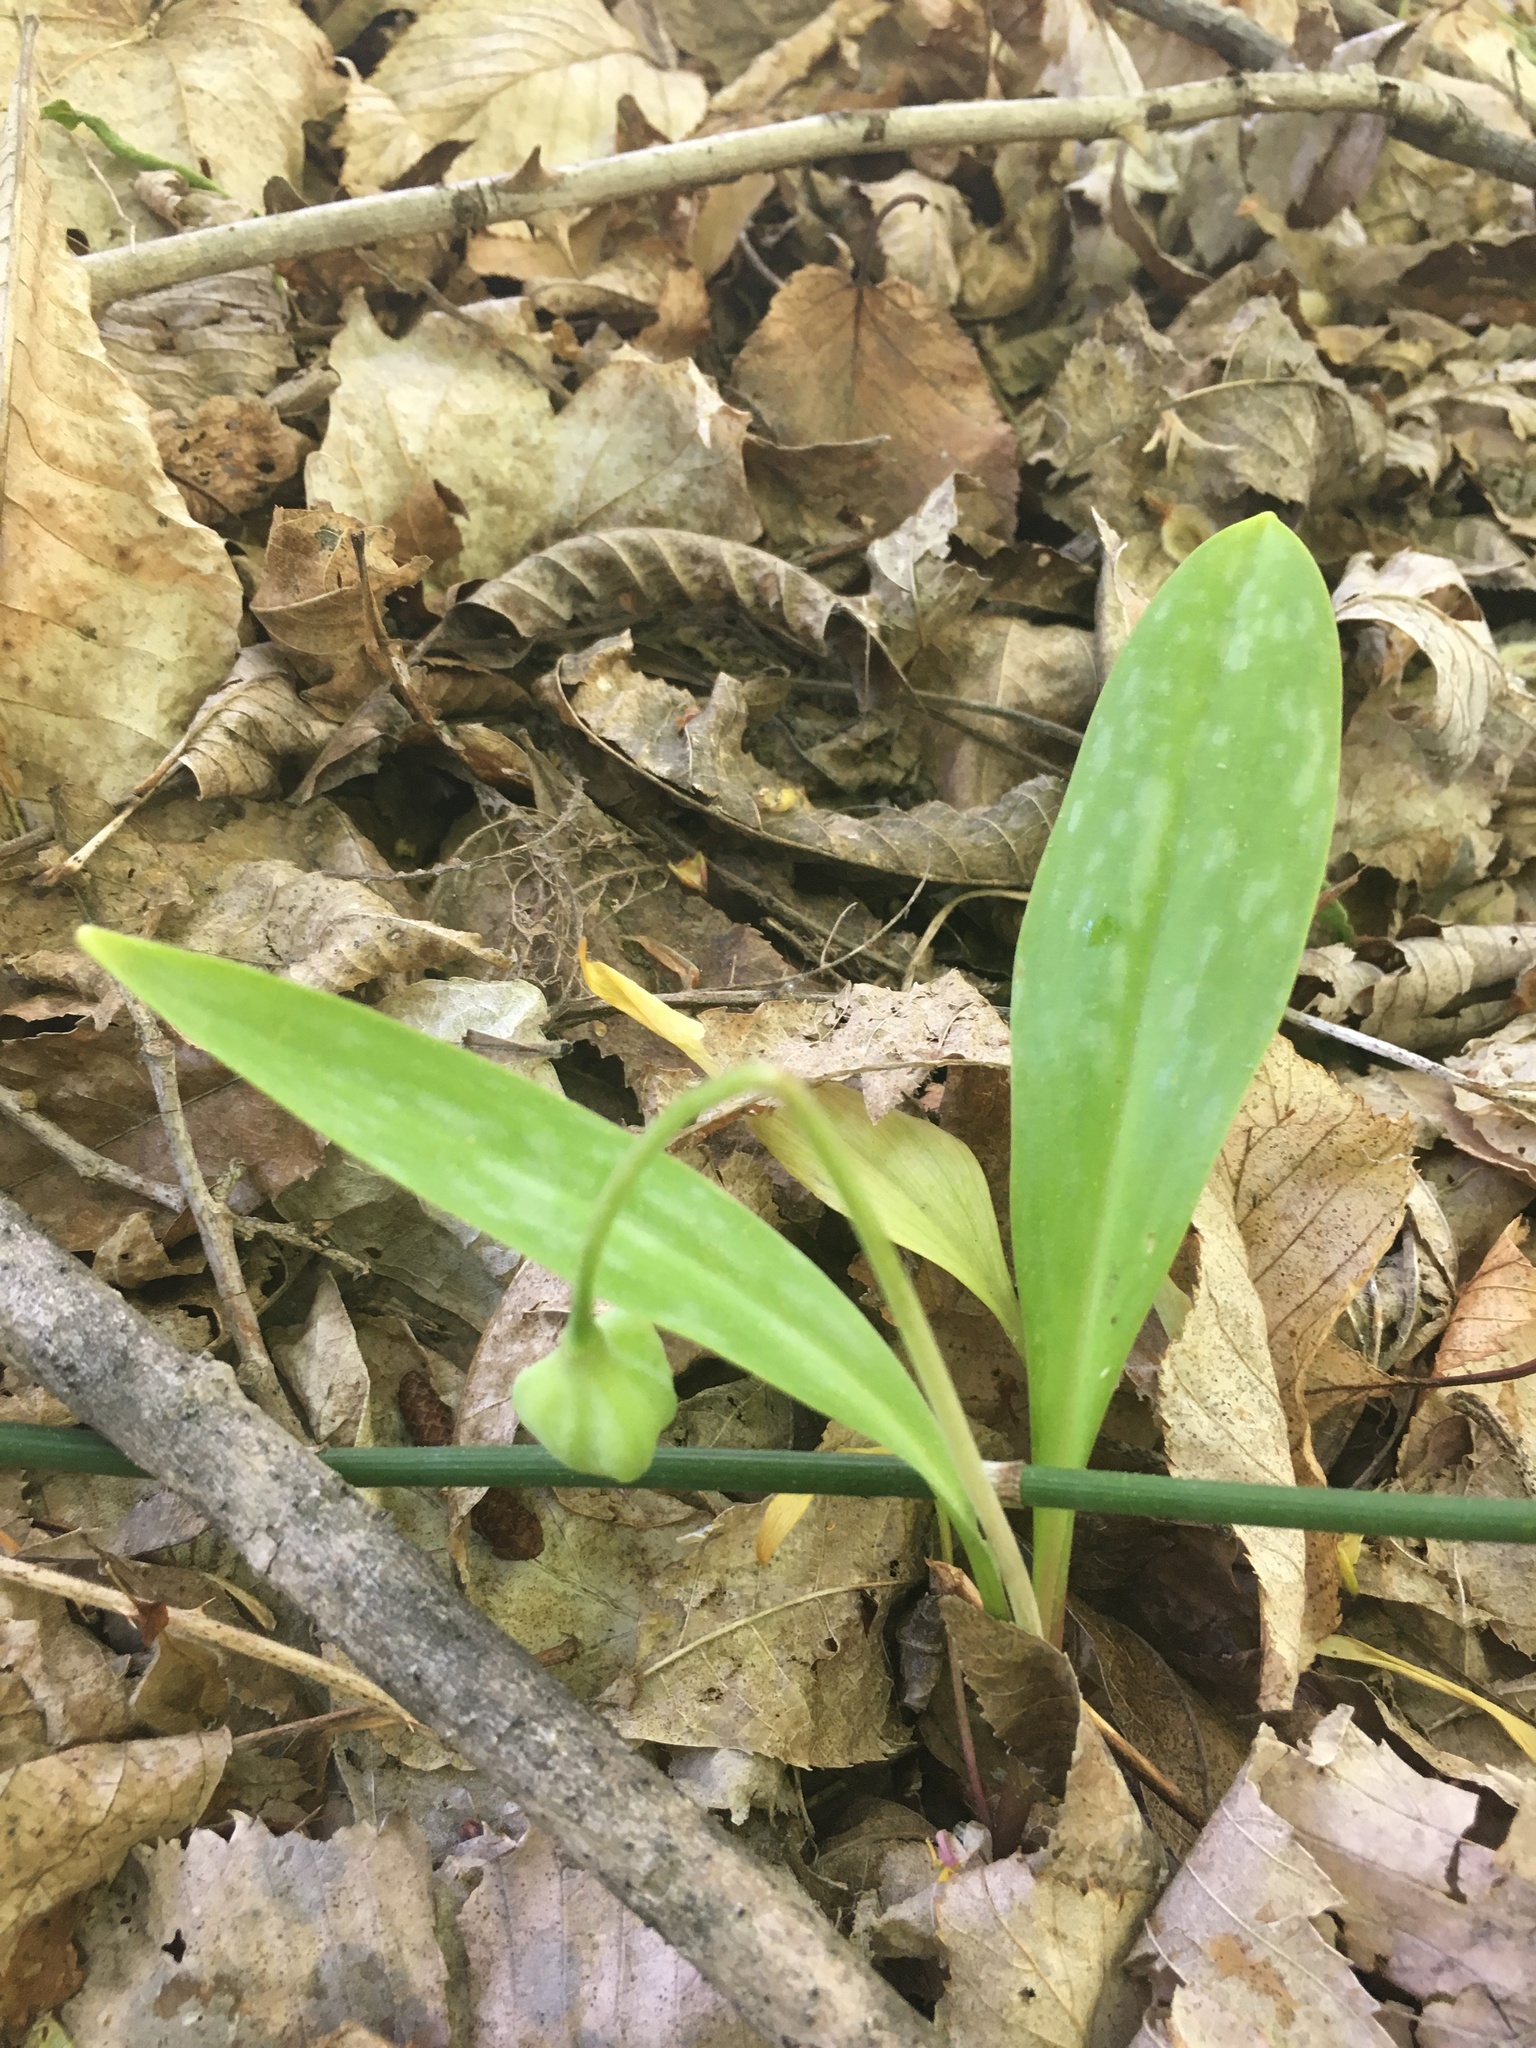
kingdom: Plantae
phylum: Tracheophyta
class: Liliopsida
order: Liliales
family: Liliaceae
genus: Erythronium
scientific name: Erythronium americanum
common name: Yellow adder's-tongue
